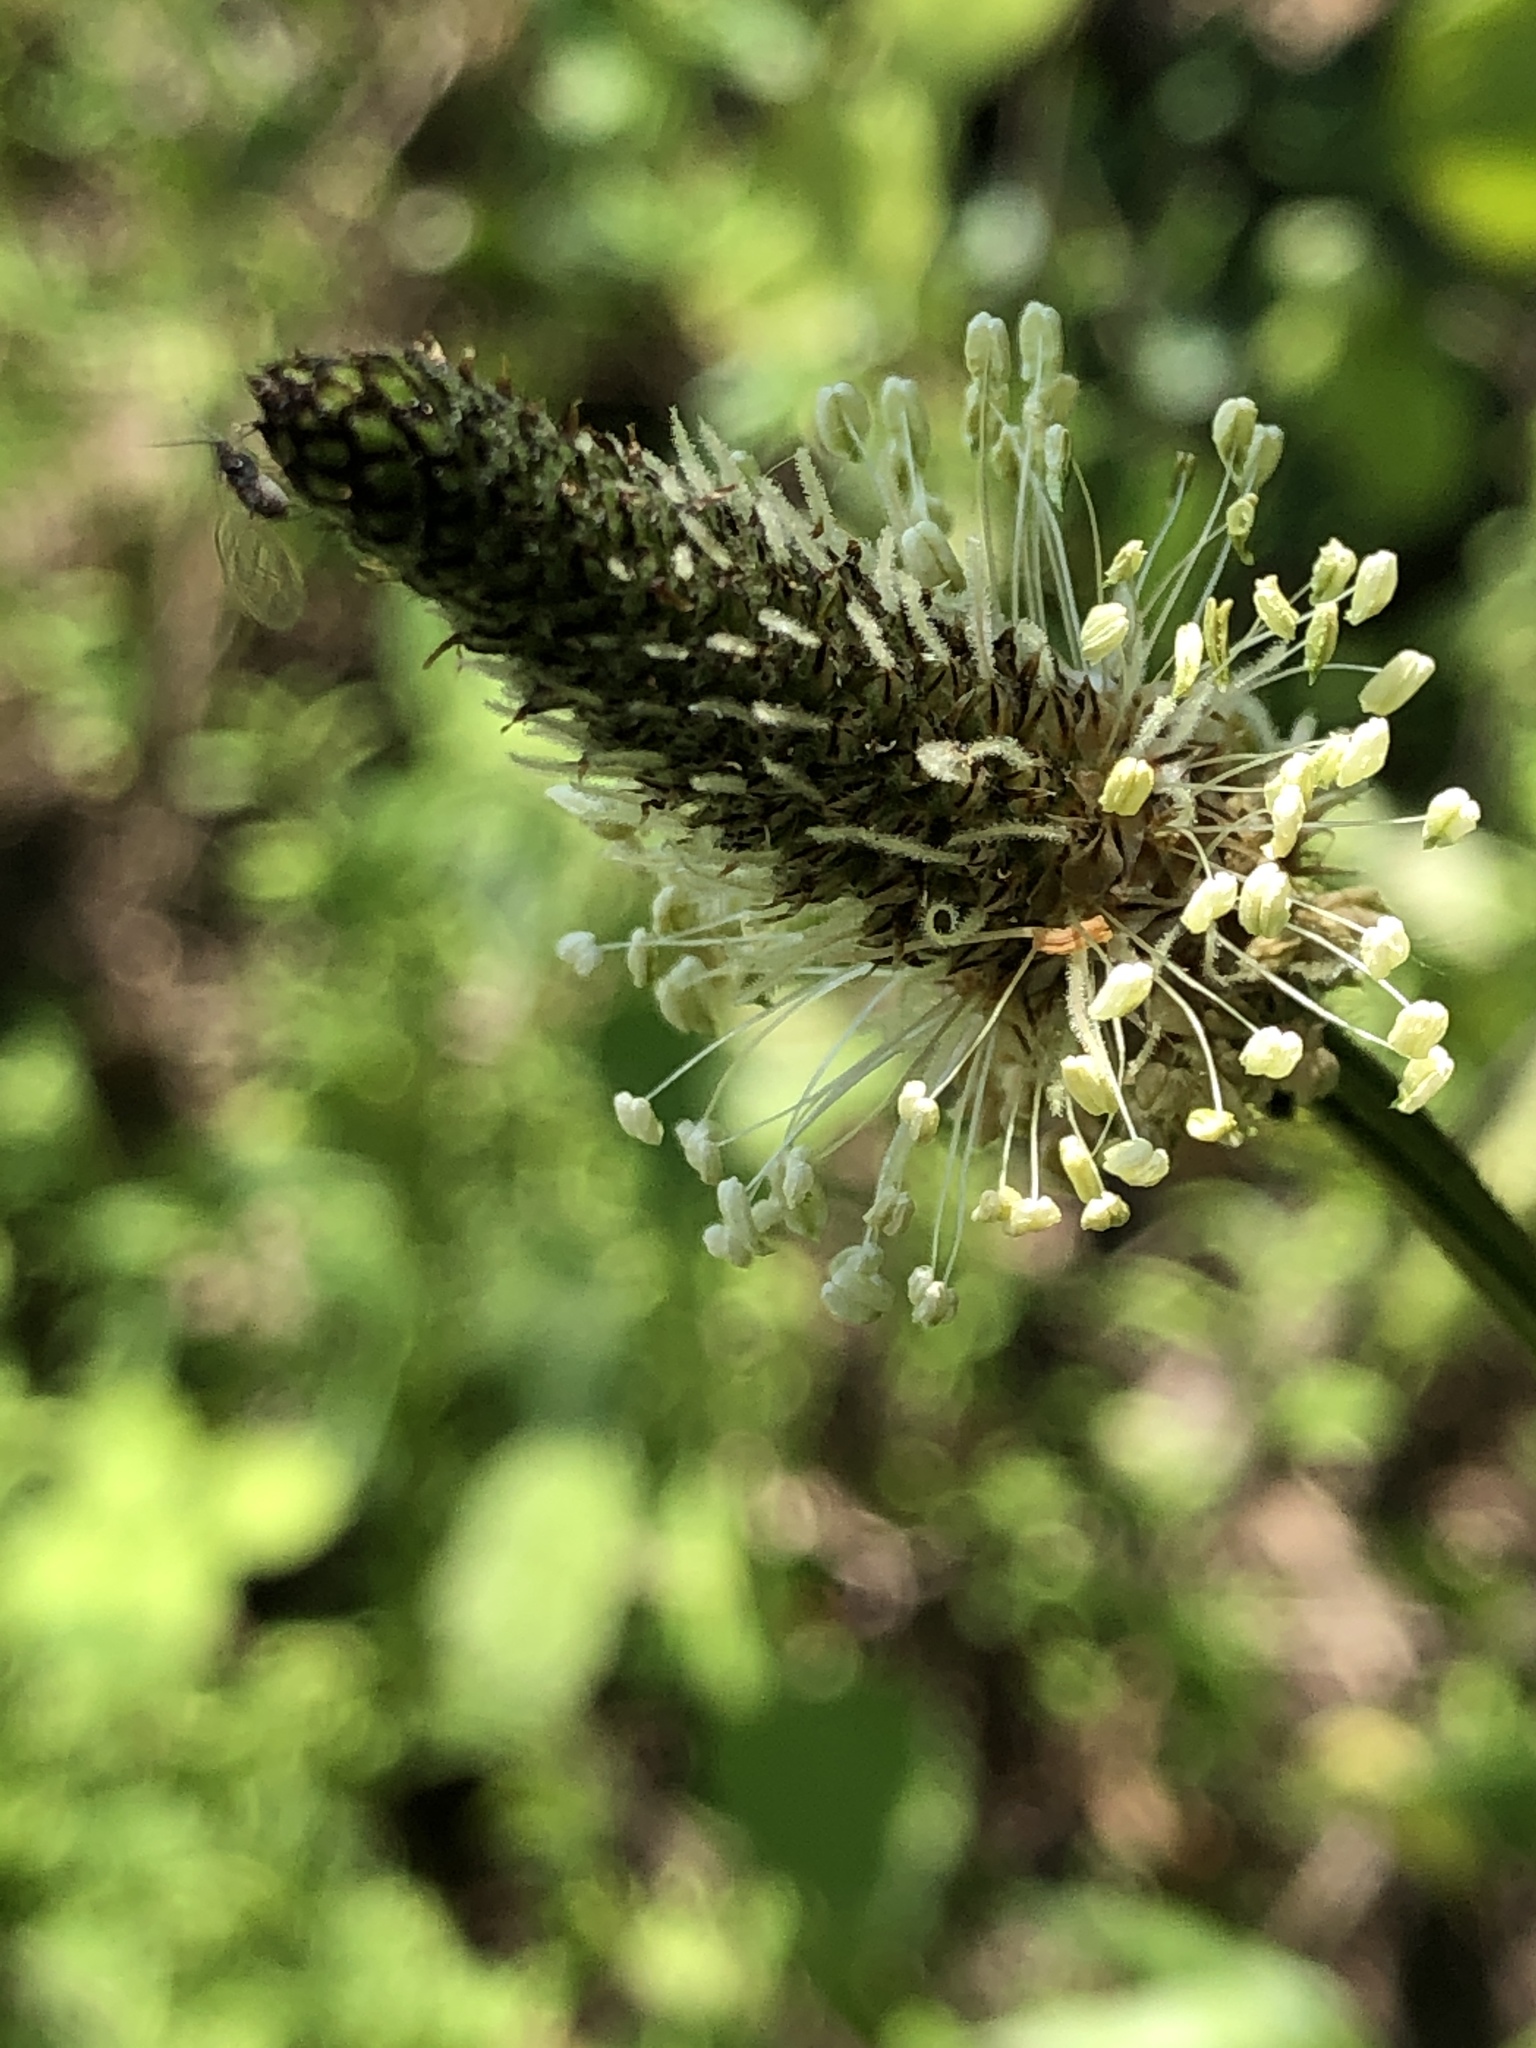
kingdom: Plantae
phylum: Tracheophyta
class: Magnoliopsida
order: Lamiales
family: Plantaginaceae
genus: Plantago
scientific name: Plantago lanceolata
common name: Ribwort plantain
